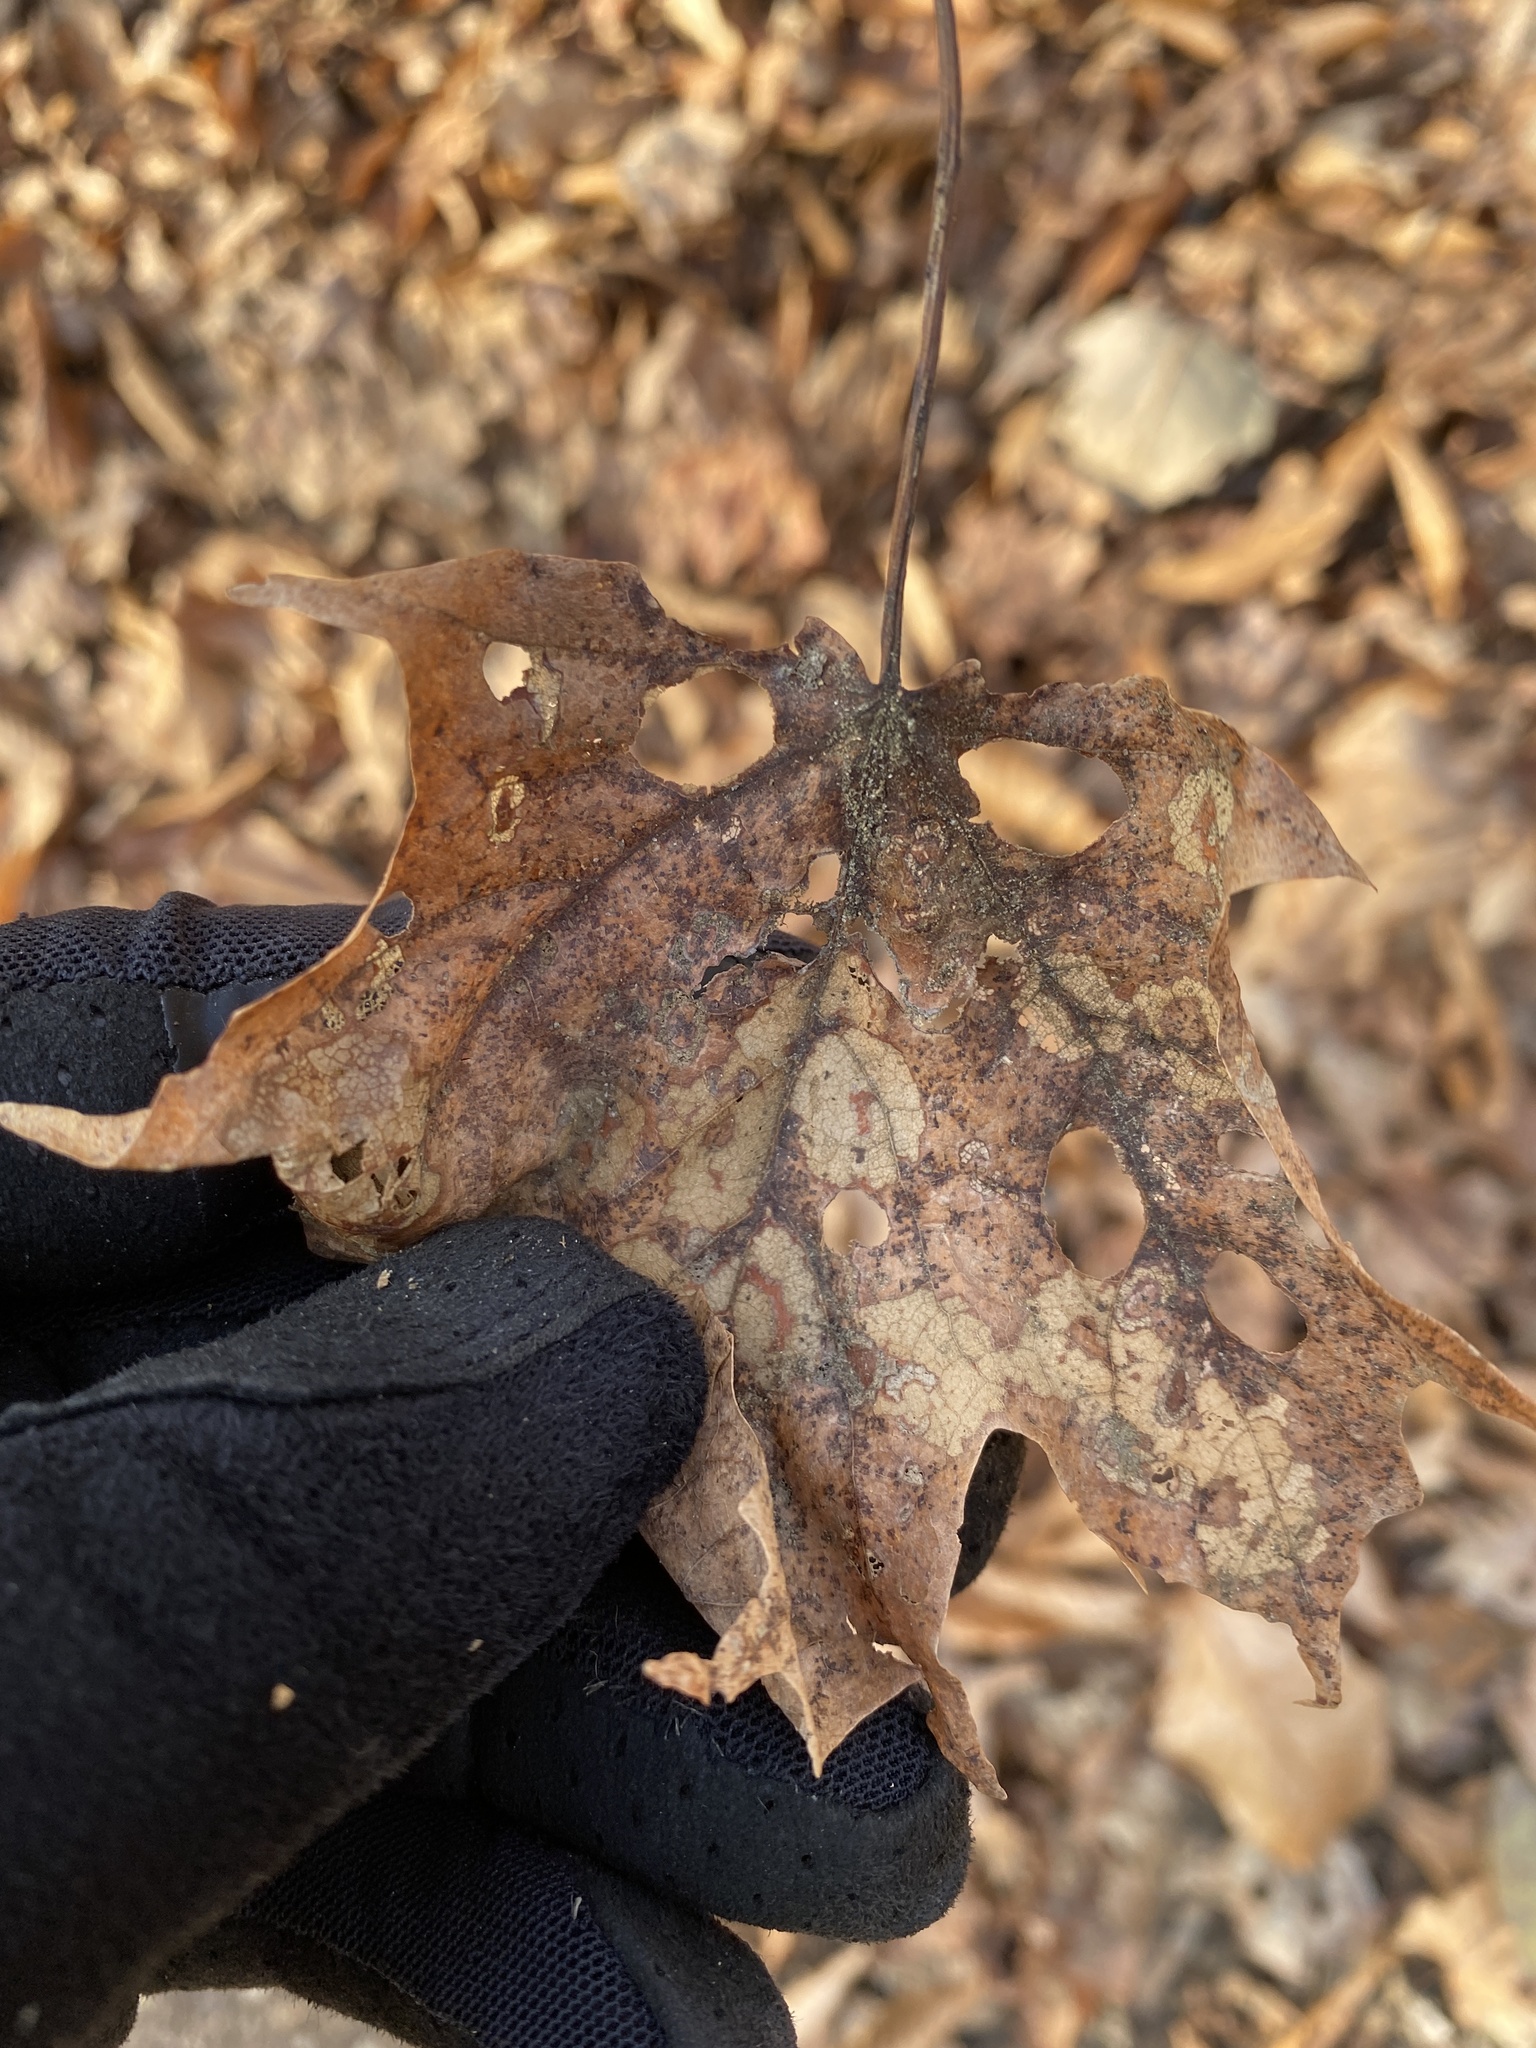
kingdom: Plantae
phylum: Tracheophyta
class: Magnoliopsida
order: Sapindales
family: Sapindaceae
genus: Acer
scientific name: Acer saccharum
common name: Sugar maple
